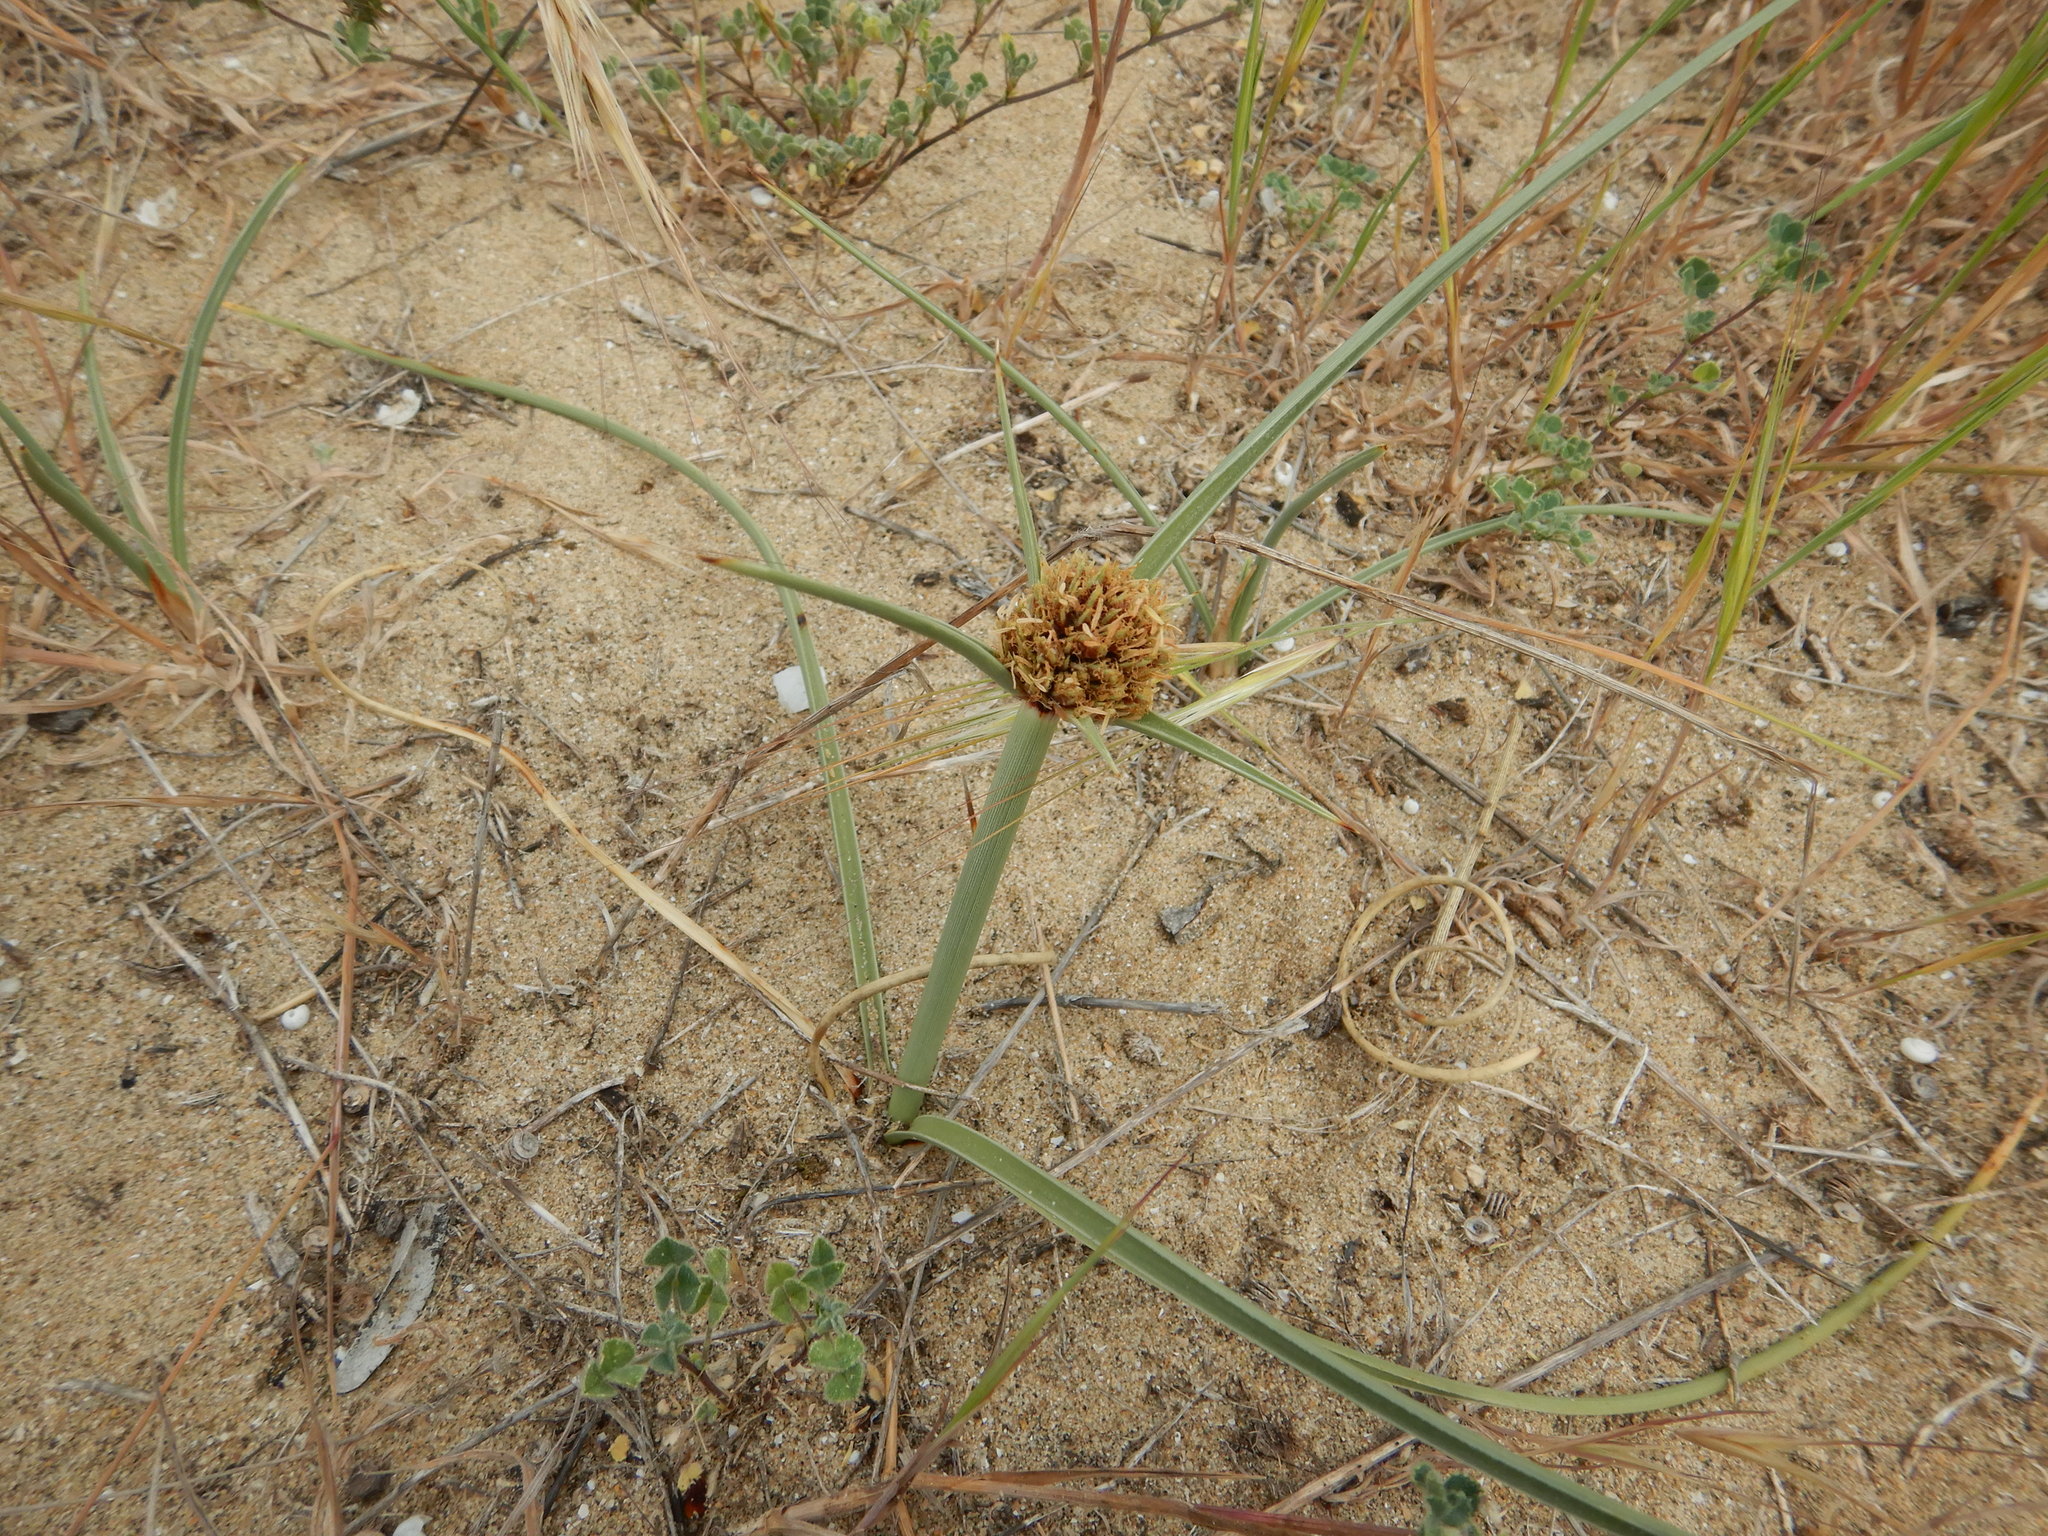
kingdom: Plantae
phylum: Tracheophyta
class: Liliopsida
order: Poales
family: Cyperaceae
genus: Cyperus
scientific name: Cyperus capitatus
